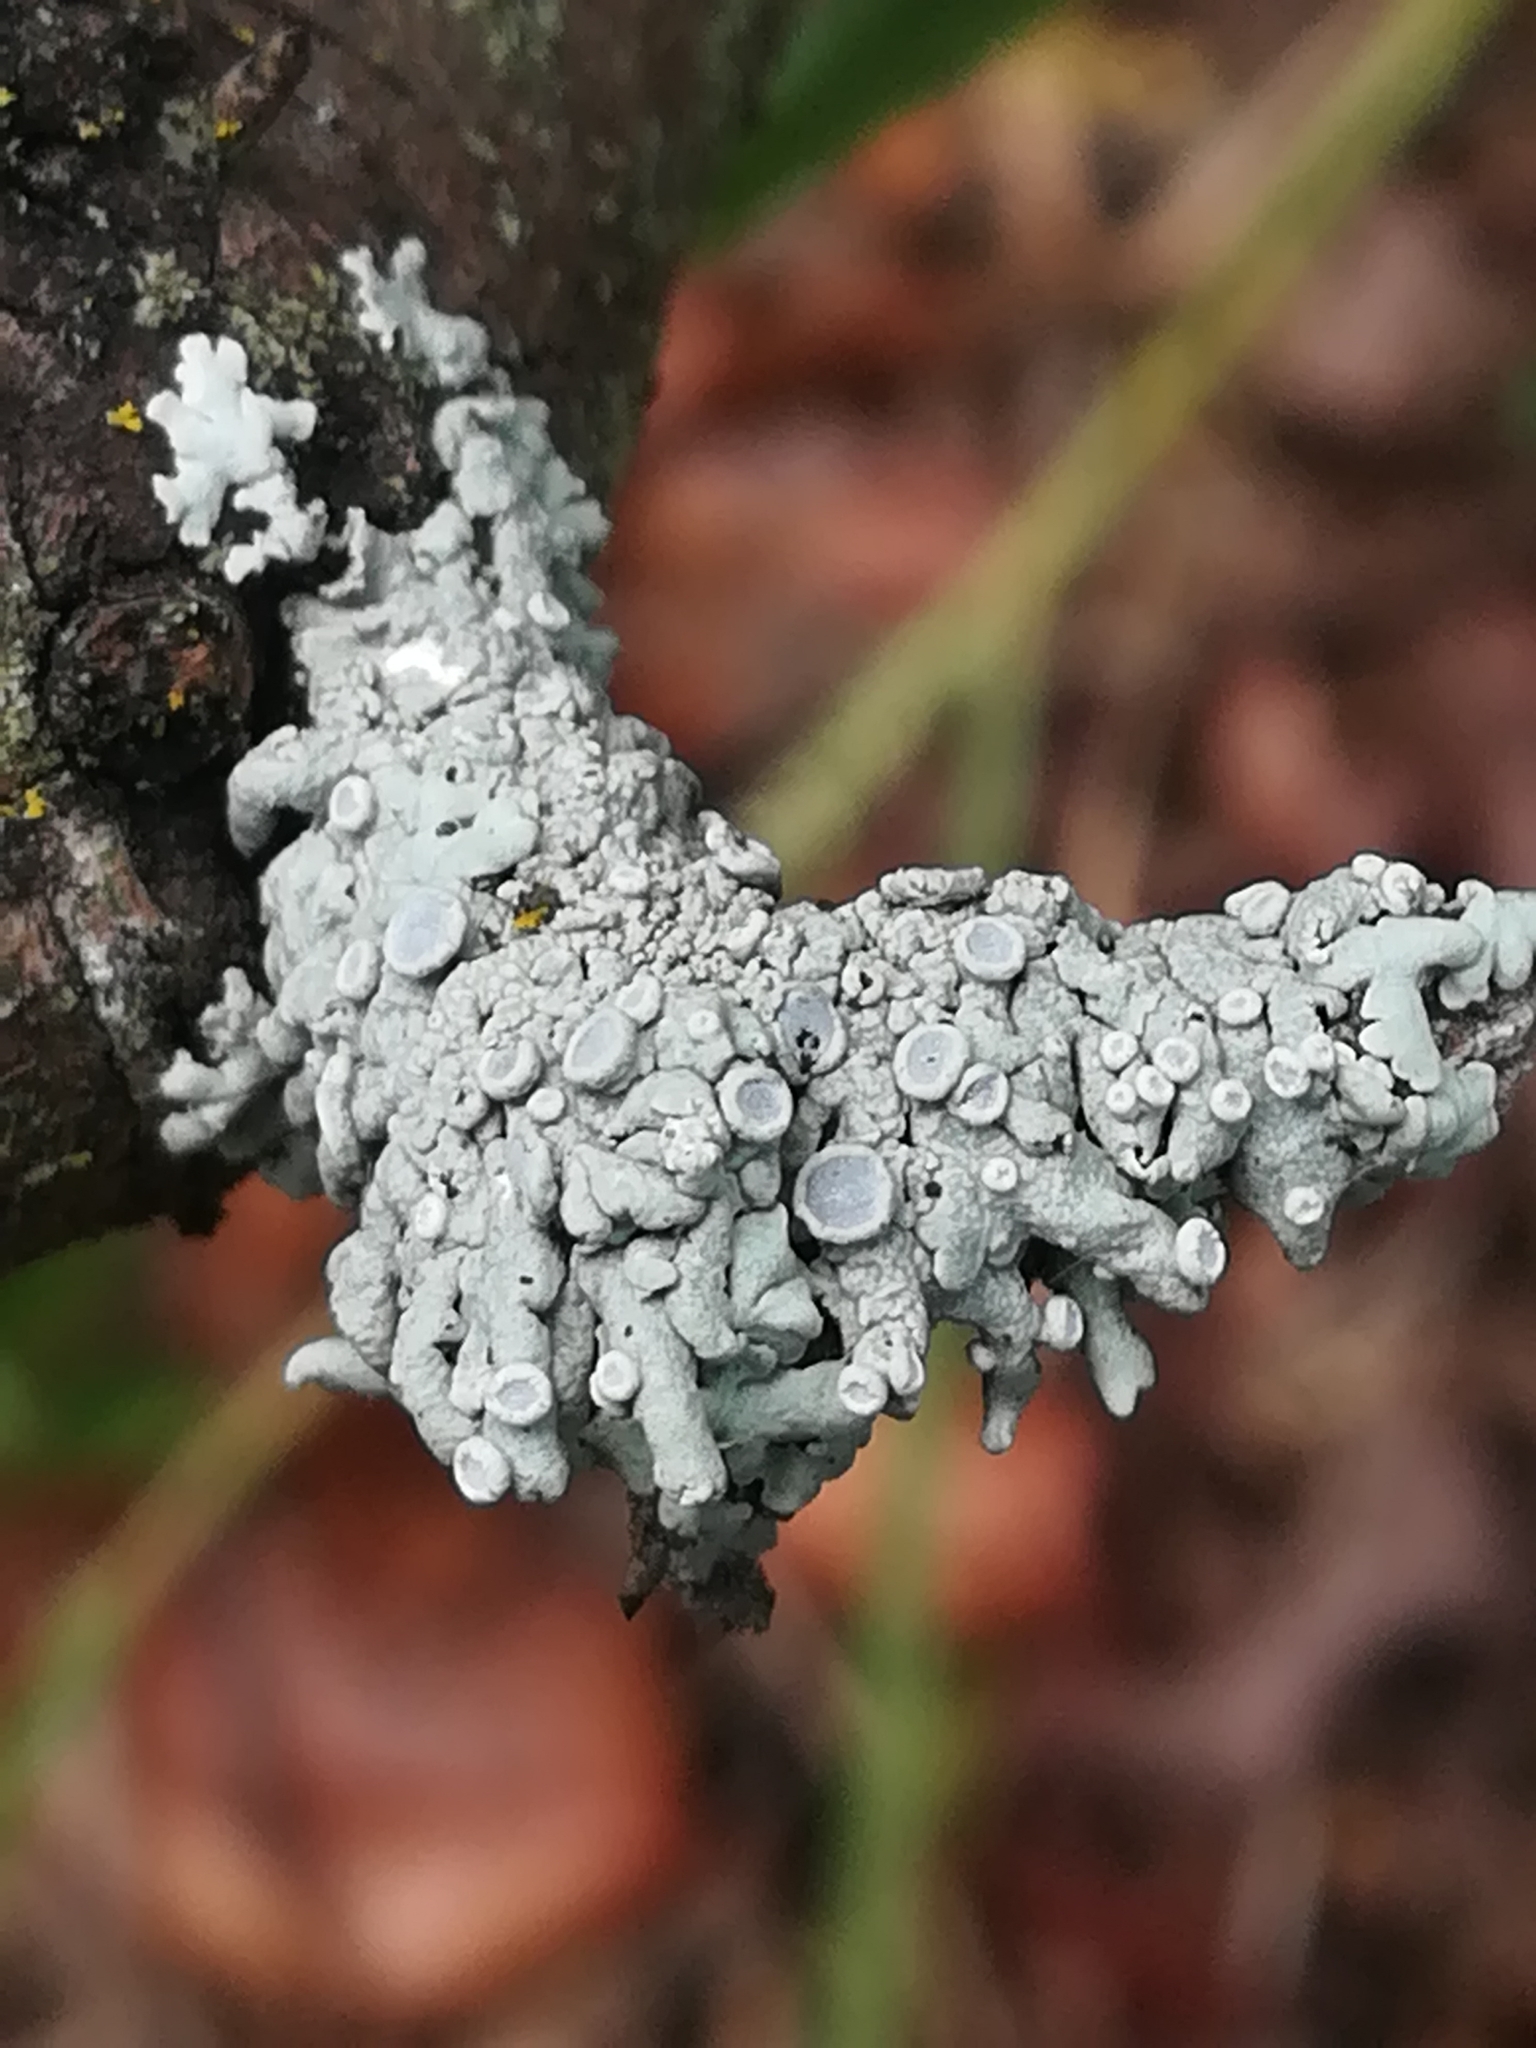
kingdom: Fungi
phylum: Ascomycota
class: Lecanoromycetes
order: Caliciales
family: Physciaceae
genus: Physcia
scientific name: Physcia aipolia
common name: Hoary rosette lichen
